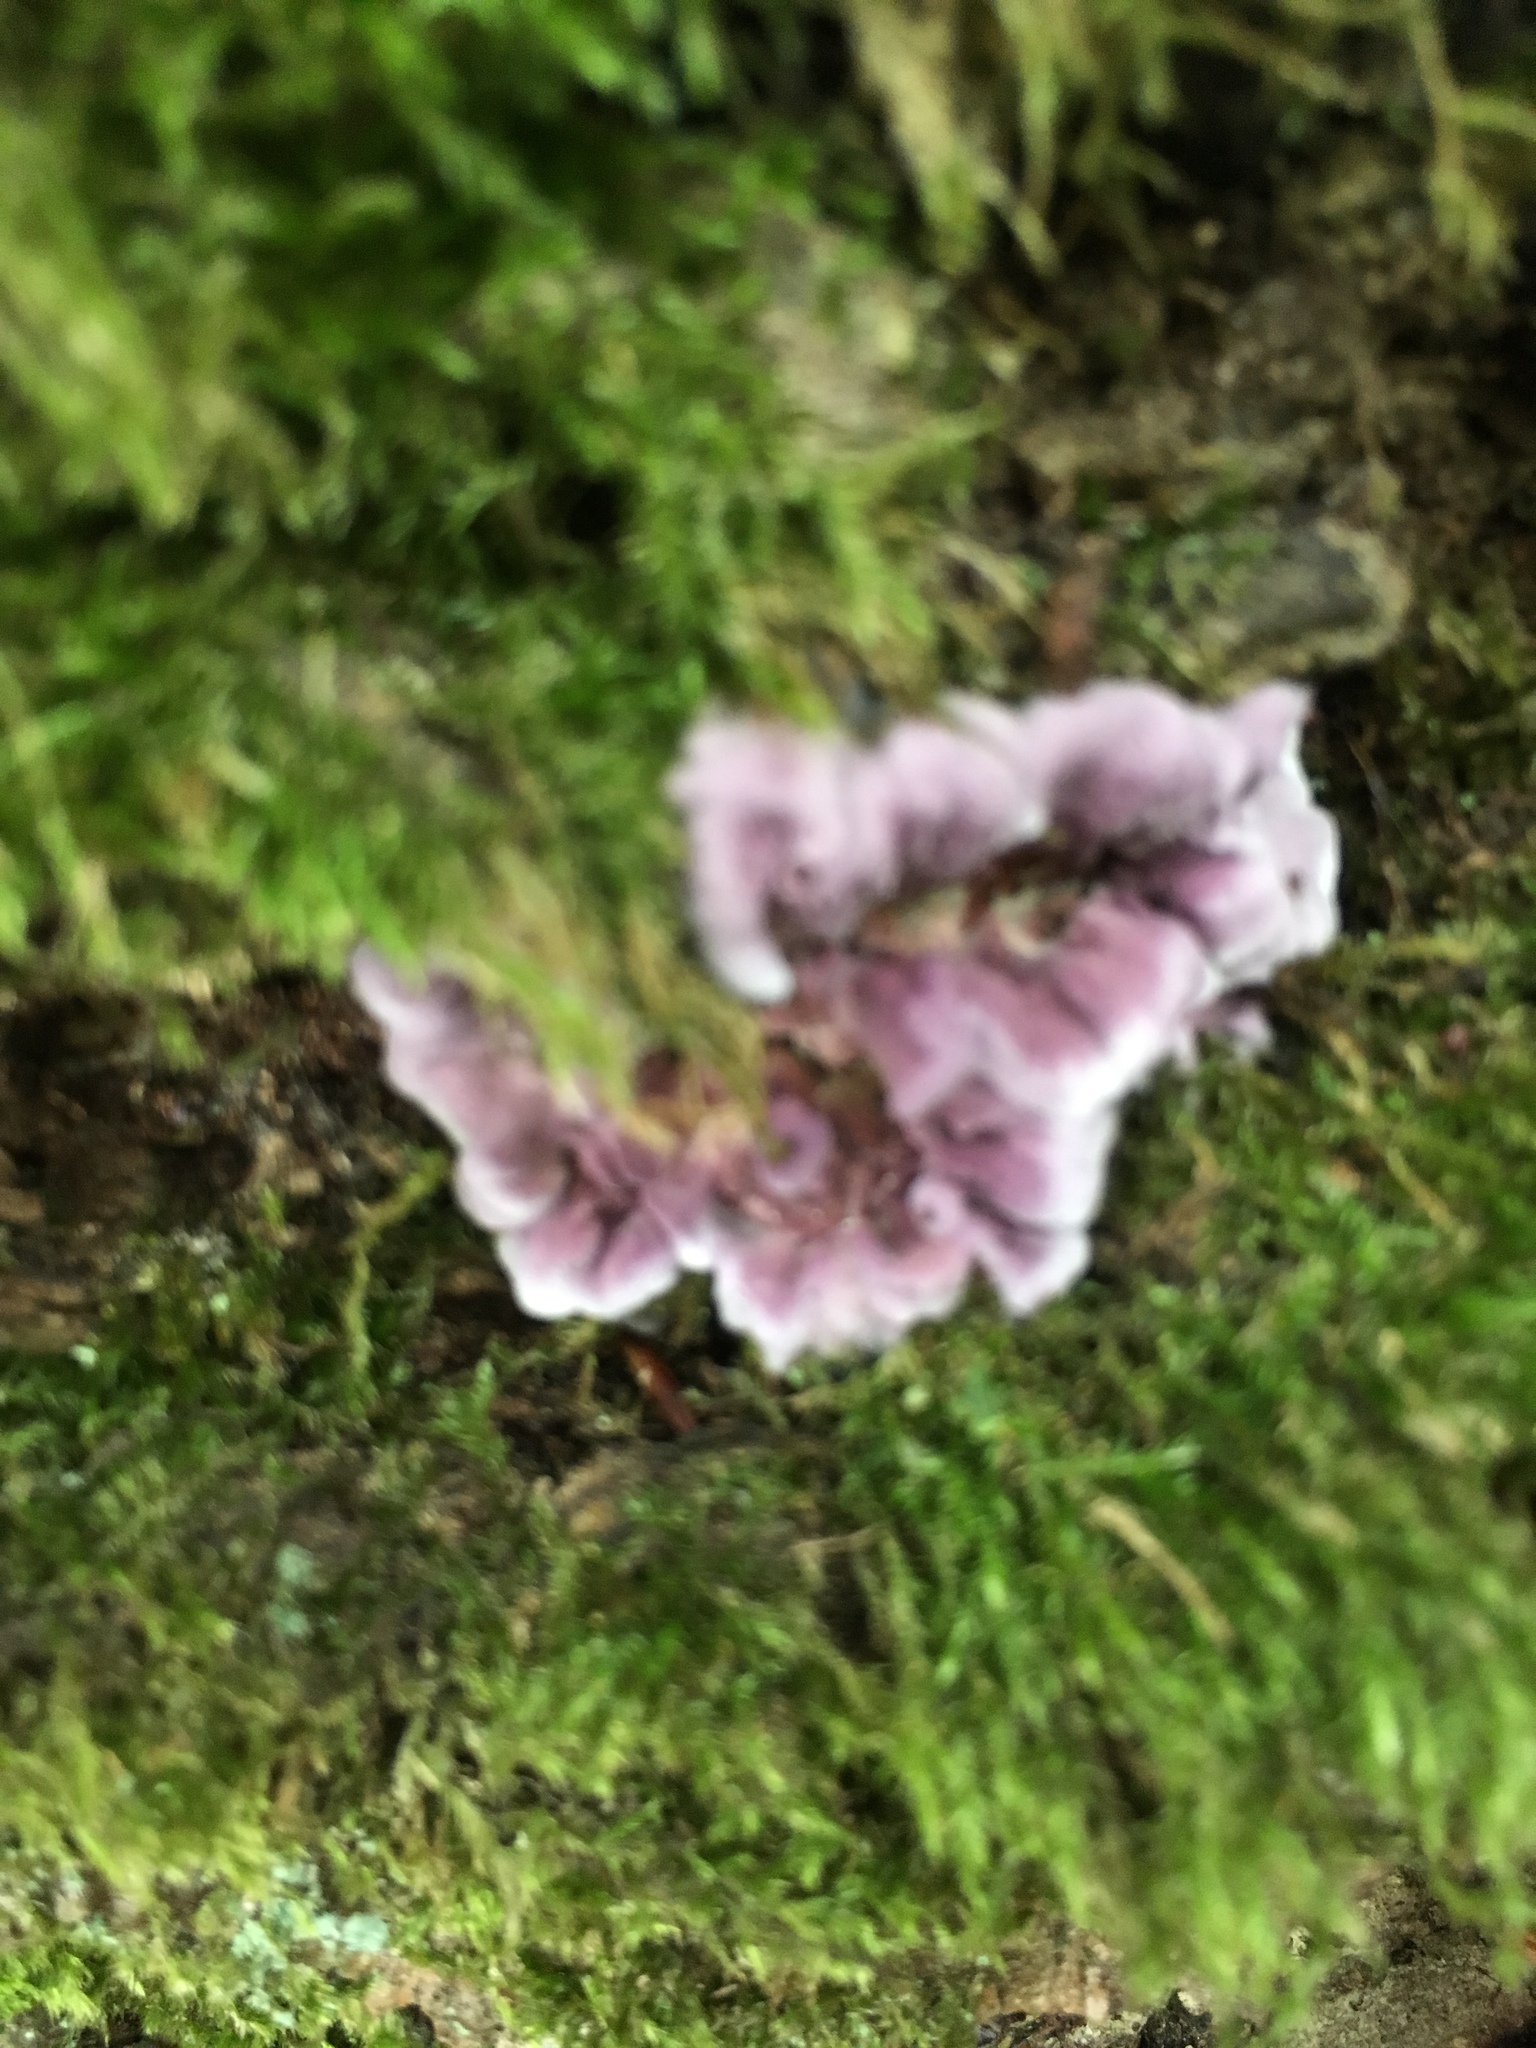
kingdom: Fungi
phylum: Basidiomycota
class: Agaricomycetes
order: Agaricales
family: Cyphellaceae
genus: Chondrostereum
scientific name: Chondrostereum purpureum
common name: Silver leaf disease
